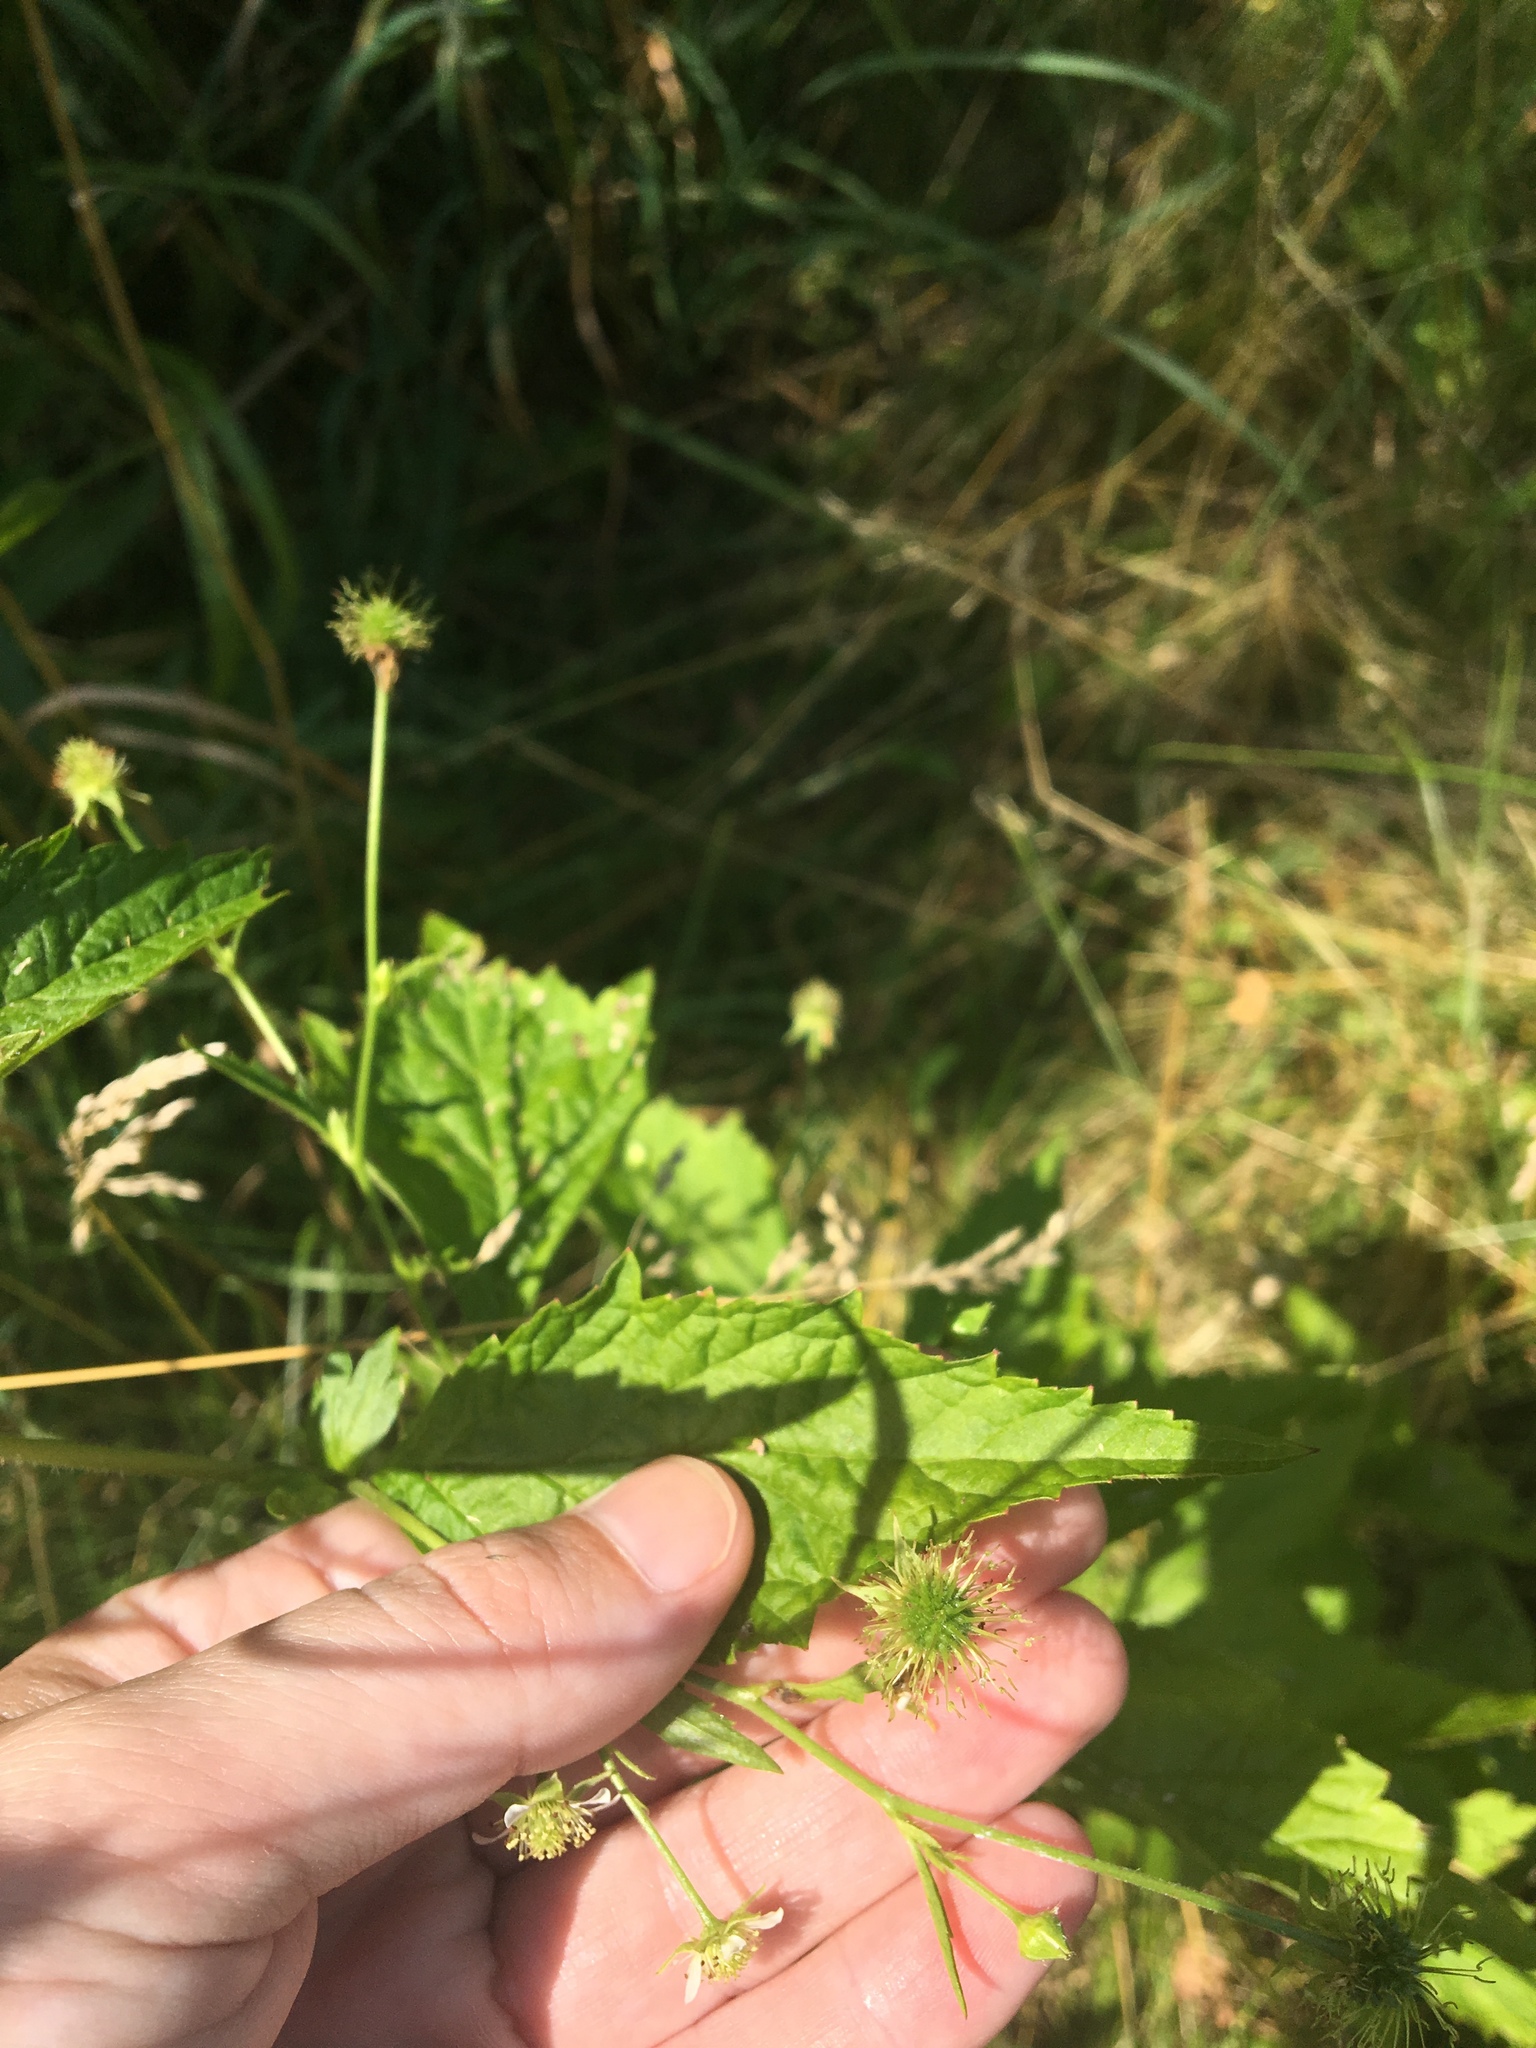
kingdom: Plantae
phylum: Tracheophyta
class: Magnoliopsida
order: Rosales
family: Rosaceae
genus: Geum
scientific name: Geum canadense
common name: White avens
